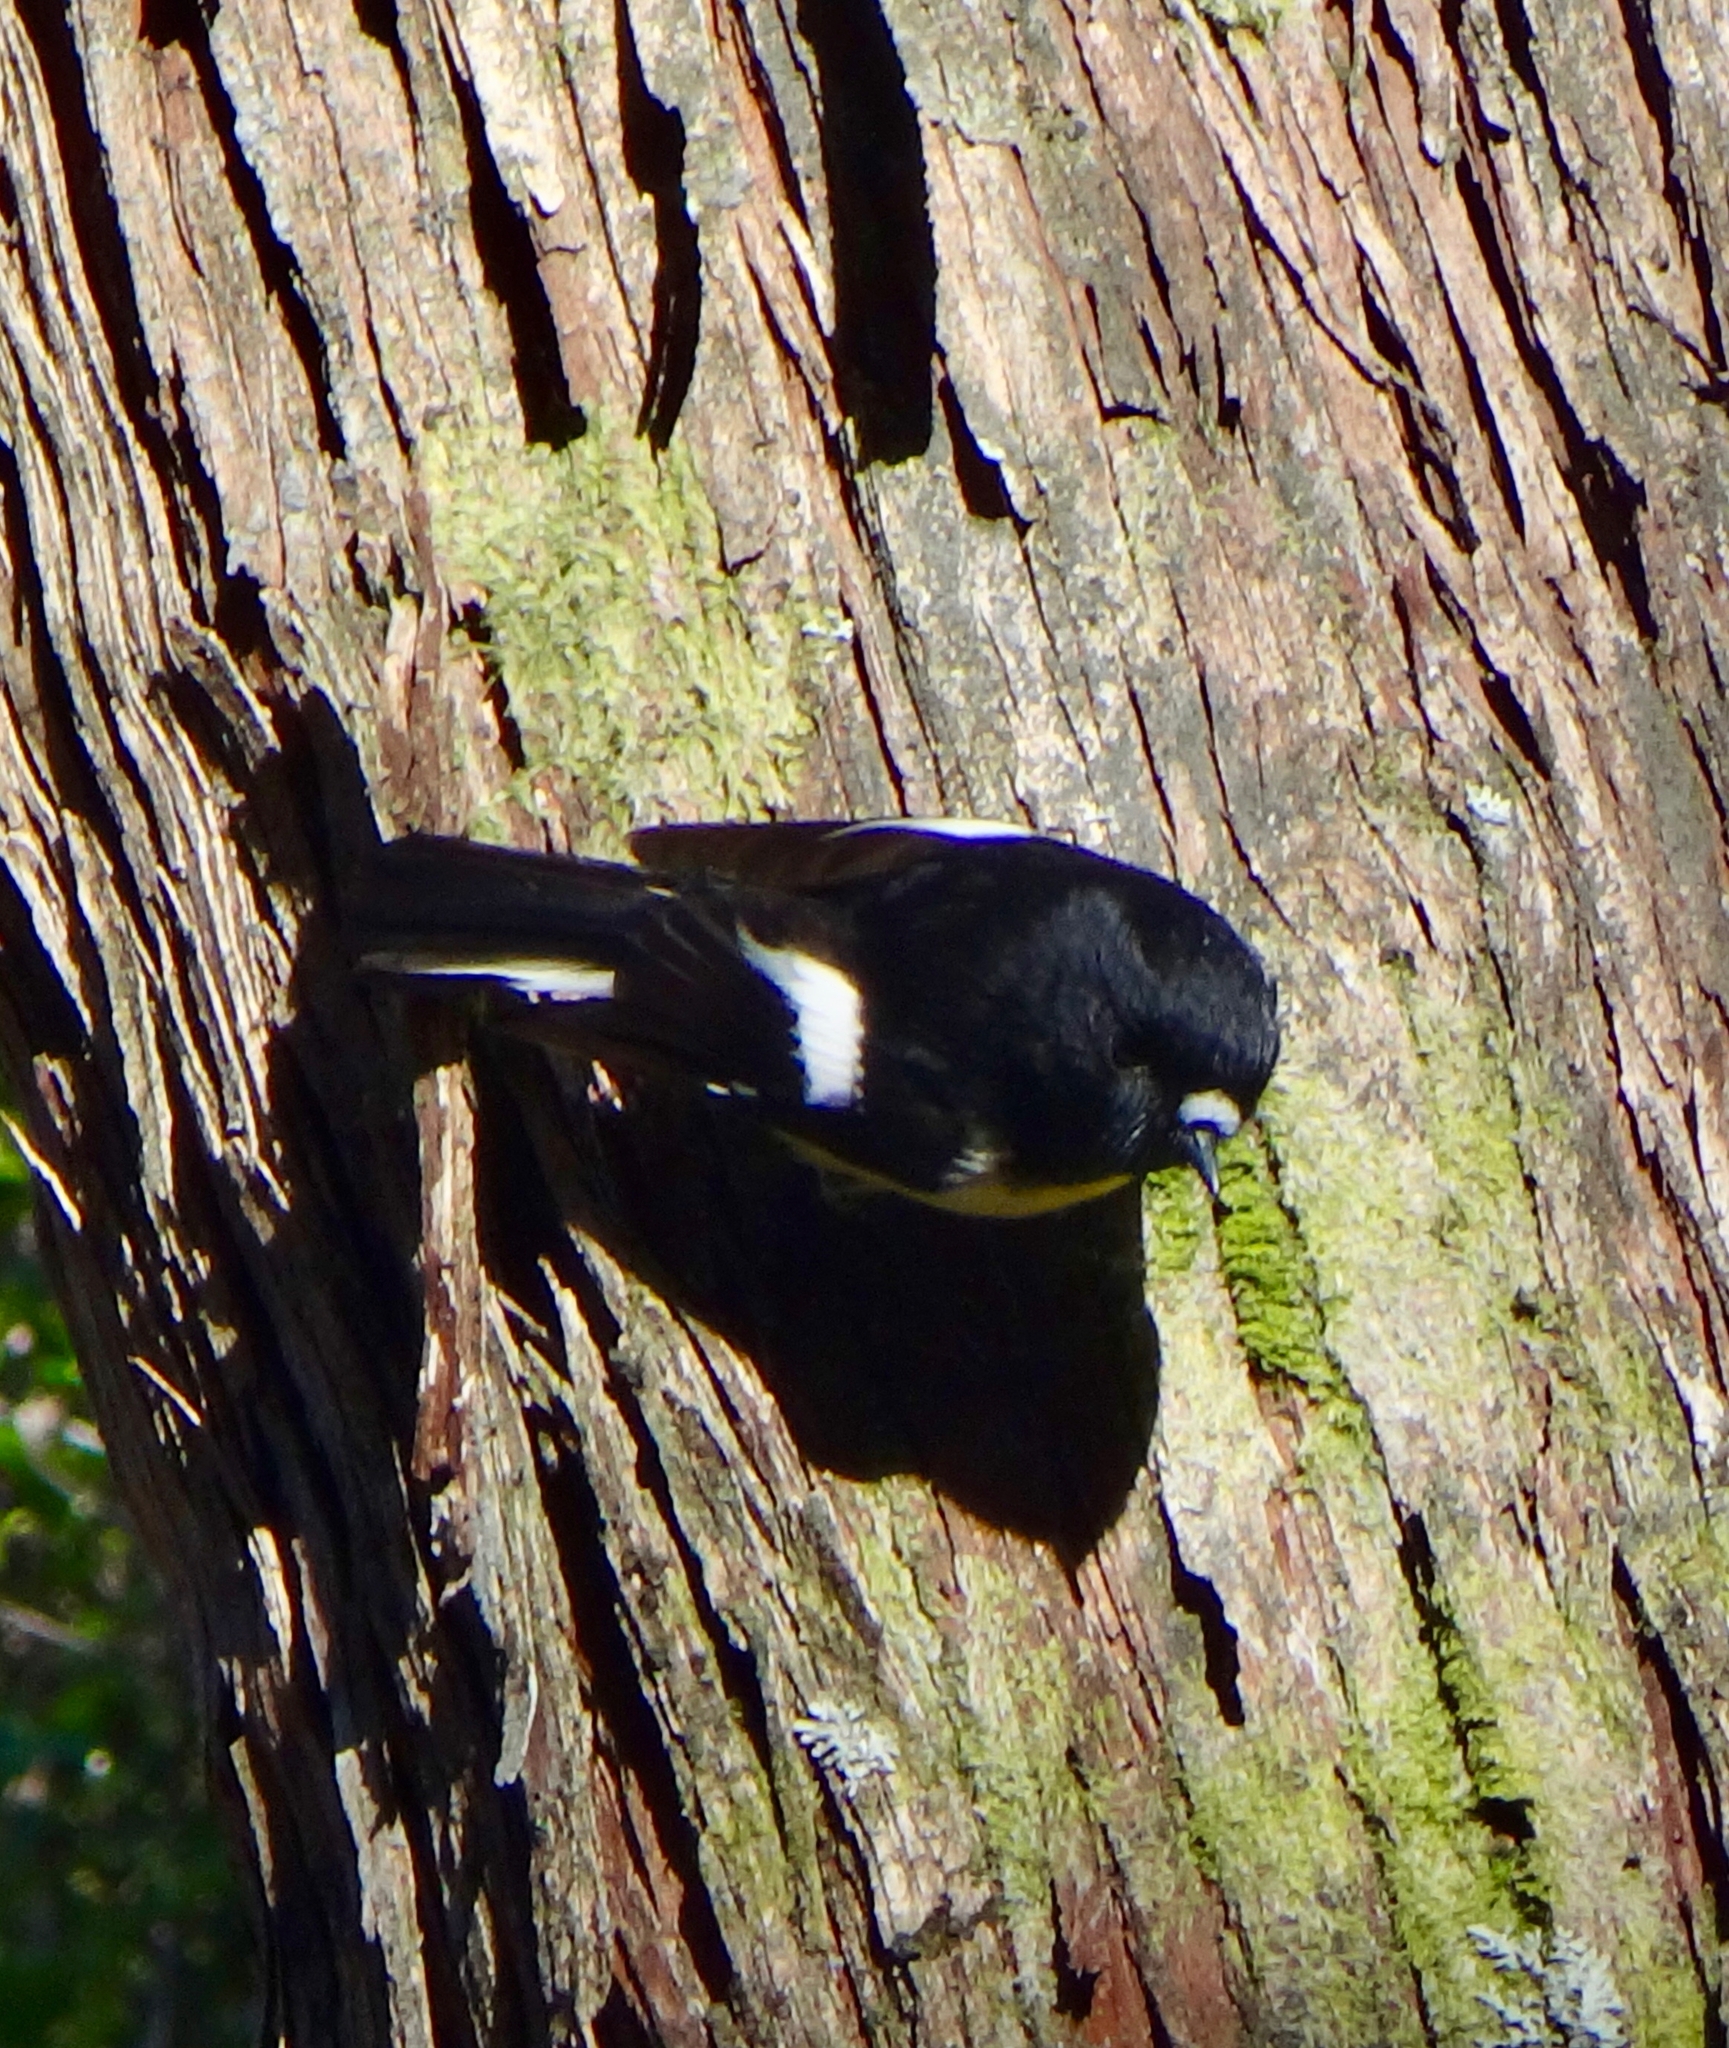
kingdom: Animalia
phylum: Chordata
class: Aves
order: Passeriformes
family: Petroicidae
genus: Petroica
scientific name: Petroica macrocephala
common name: Tomtit
